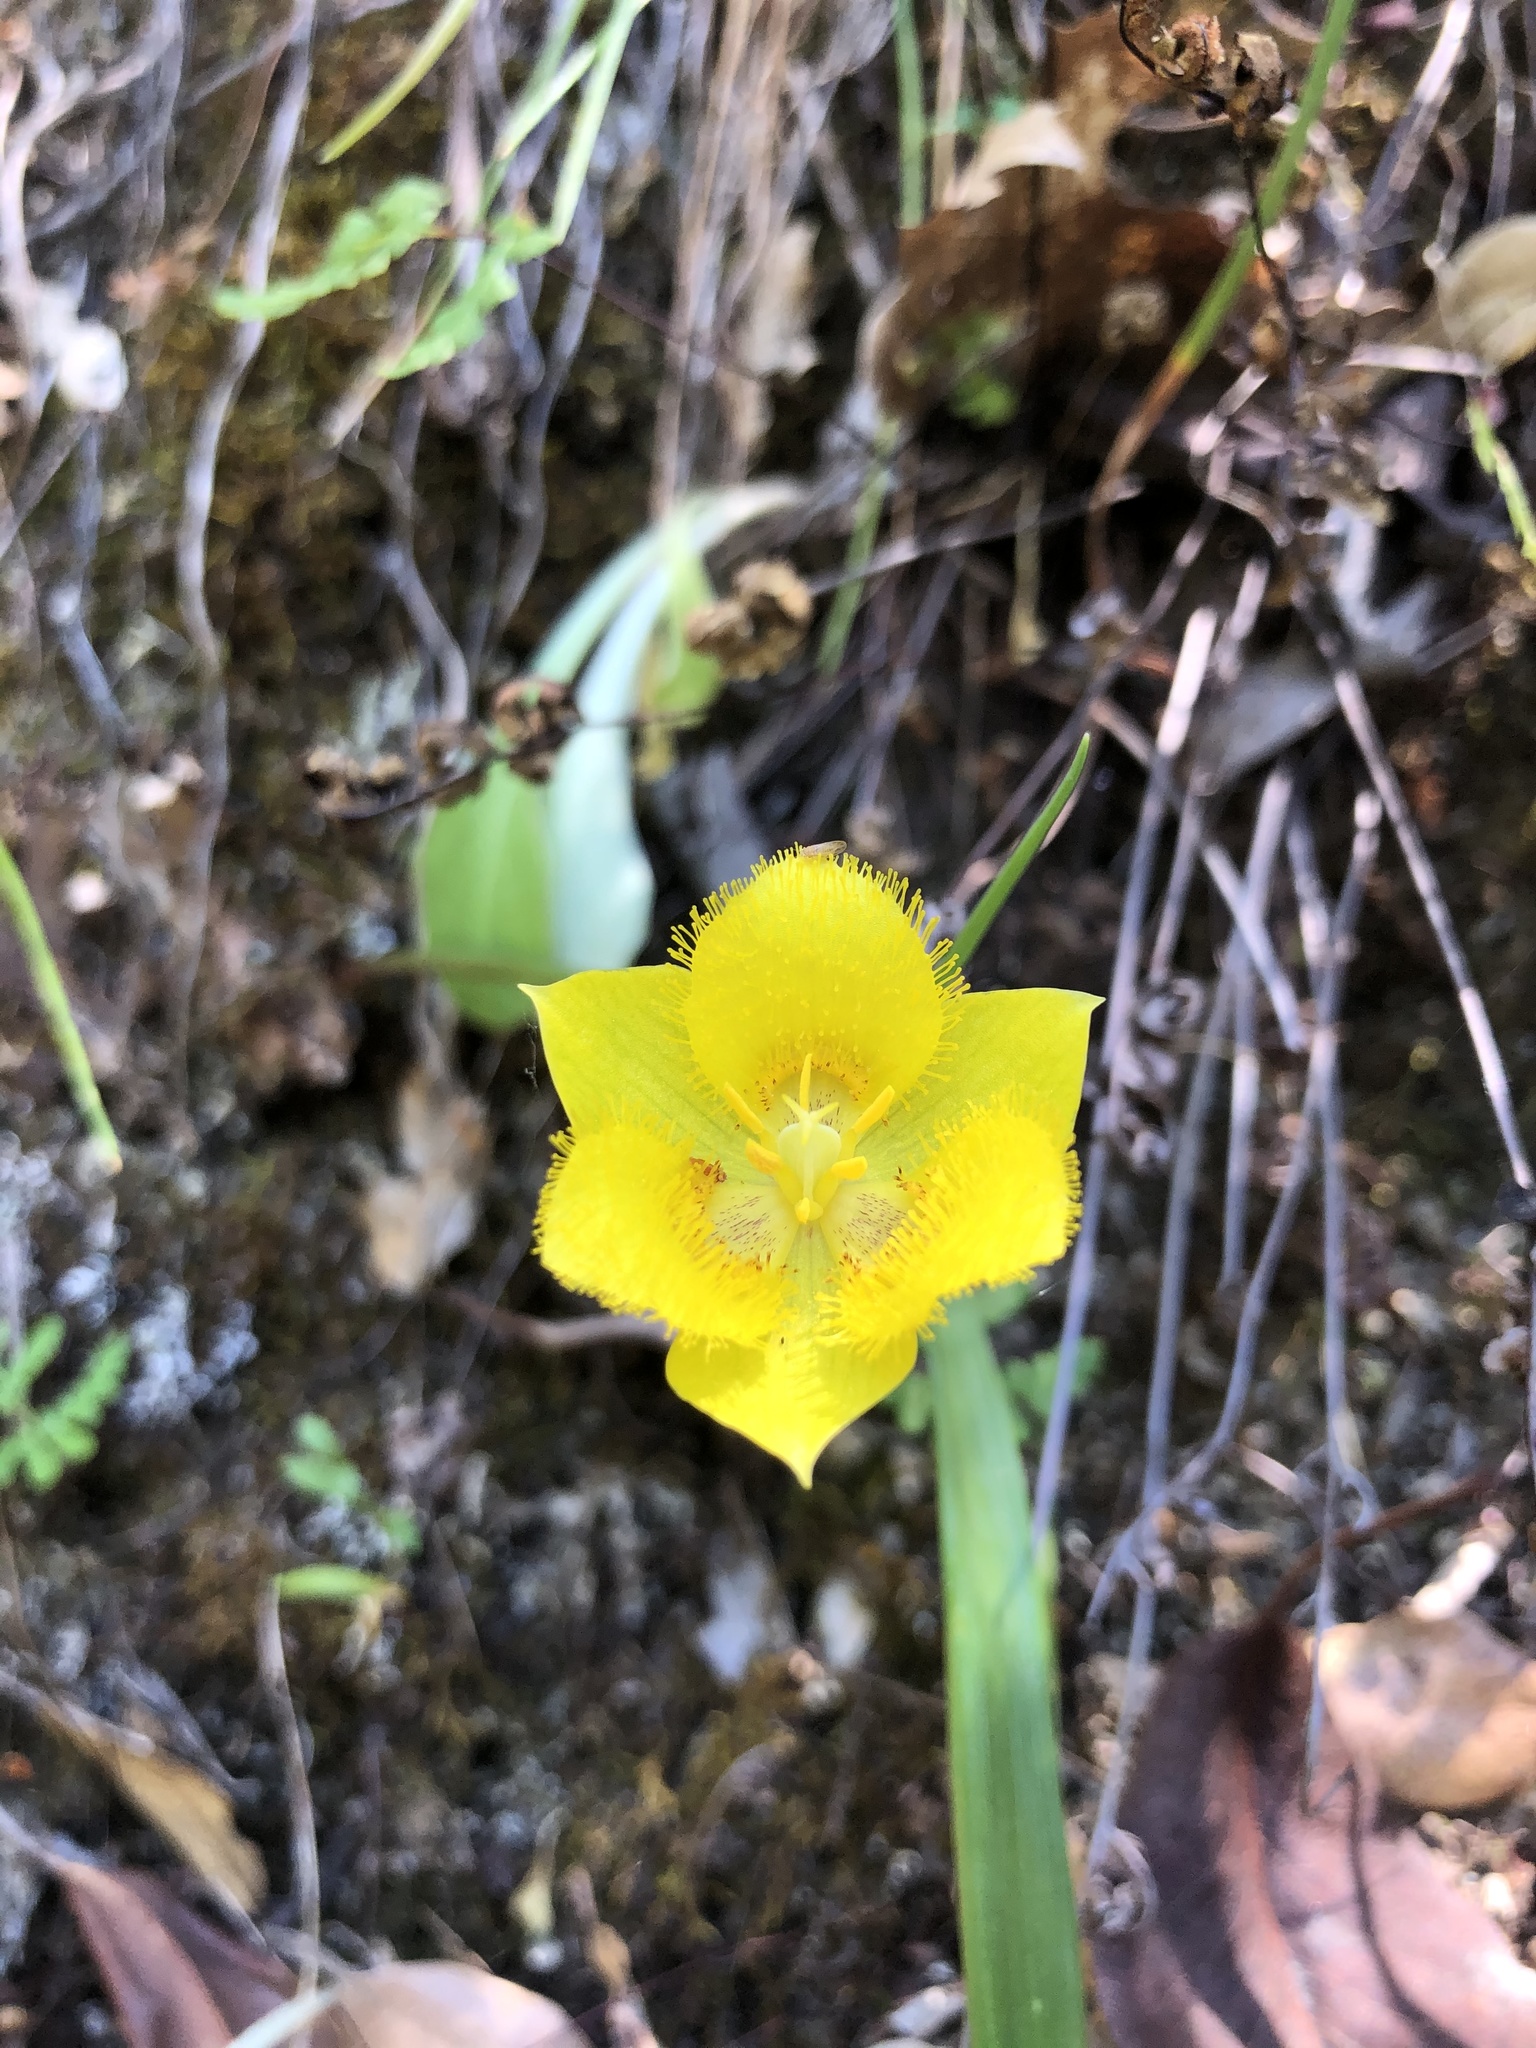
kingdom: Plantae
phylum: Tracheophyta
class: Liliopsida
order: Liliales
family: Liliaceae
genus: Calochortus
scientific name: Calochortus monophyllus
